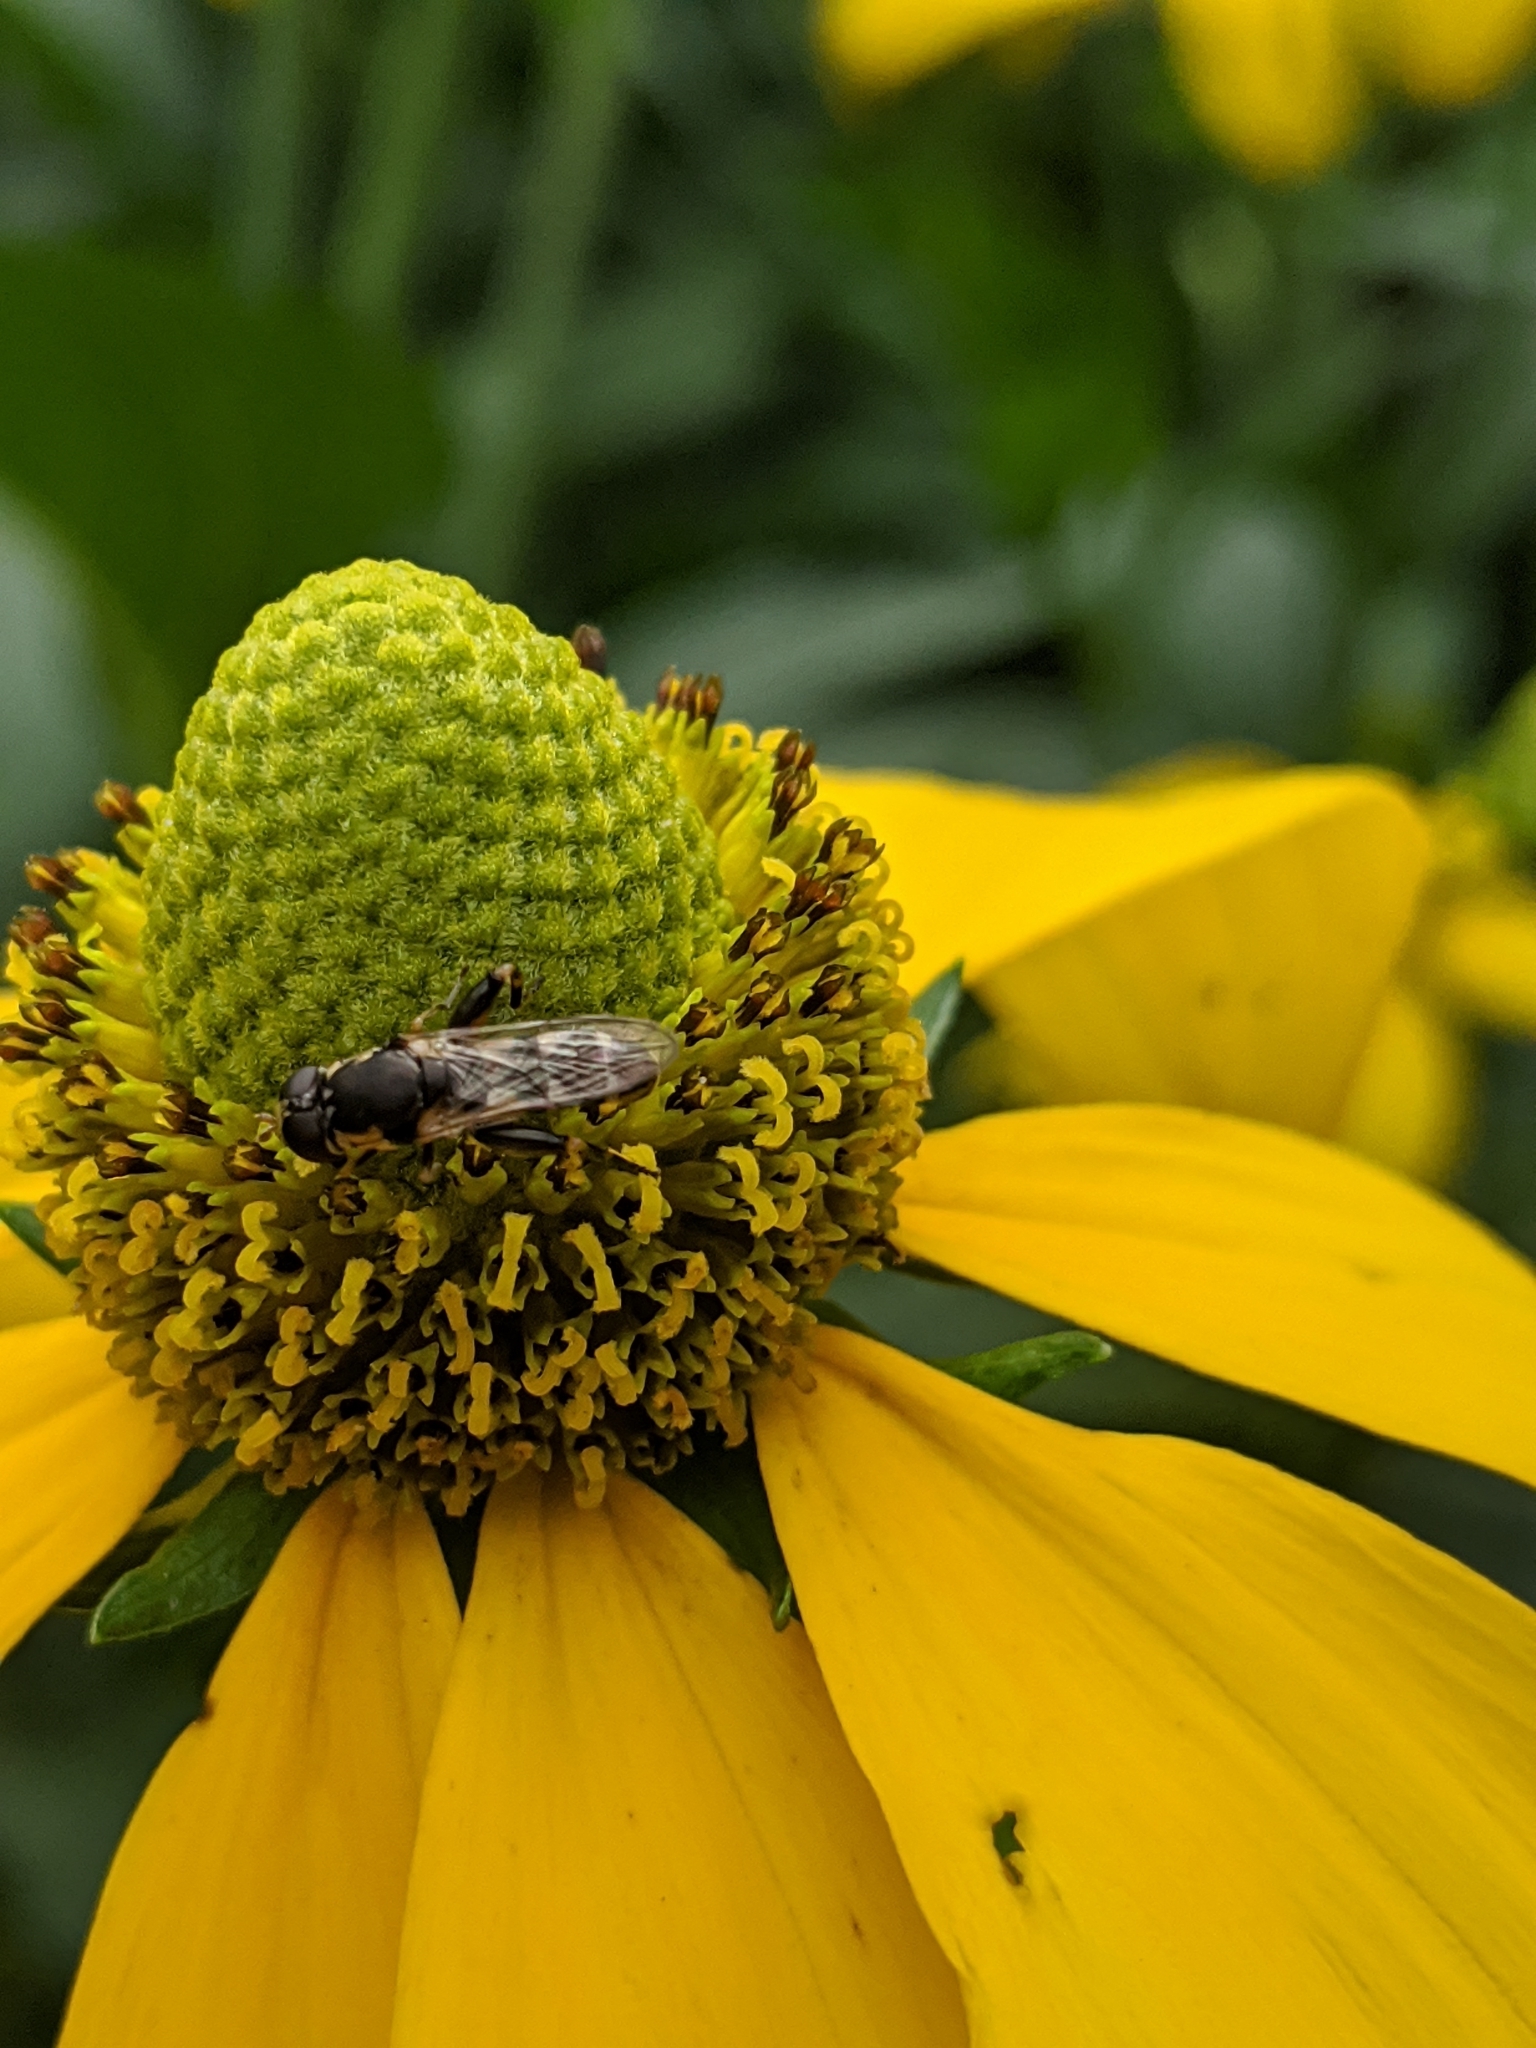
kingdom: Animalia
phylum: Arthropoda
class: Insecta
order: Diptera
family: Syrphidae
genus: Syritta
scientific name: Syritta pipiens
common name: Hover fly
